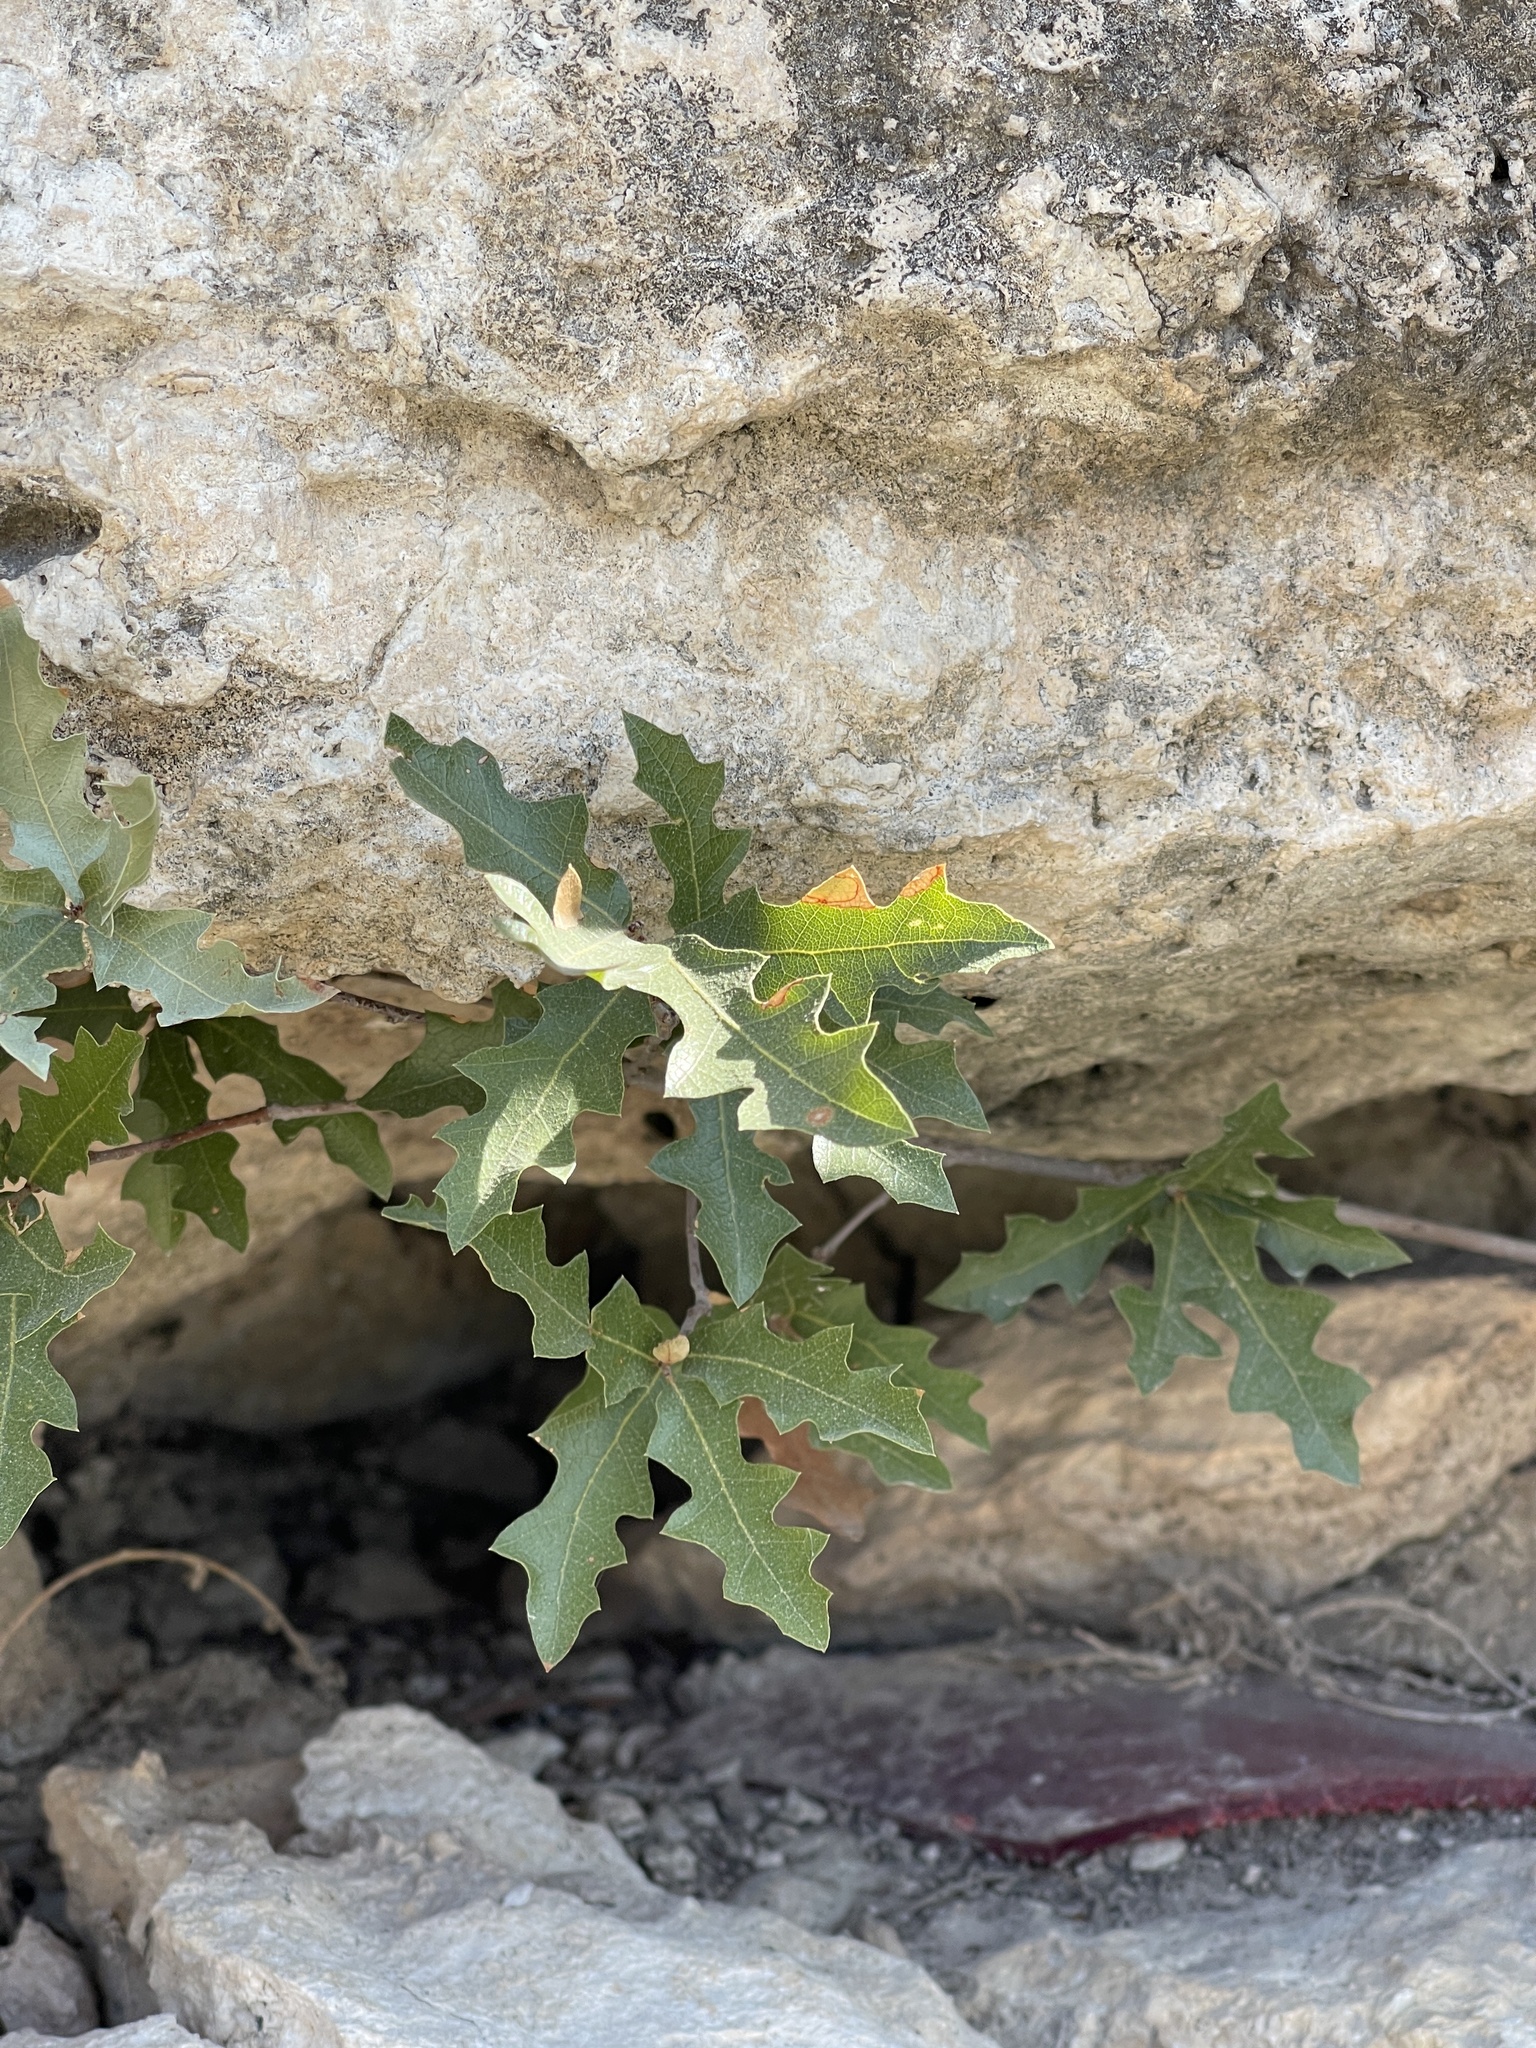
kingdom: Plantae
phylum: Tracheophyta
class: Magnoliopsida
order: Fagales
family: Fagaceae
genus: Quercus
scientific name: Quercus vaseyana
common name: Sandpaper oak
